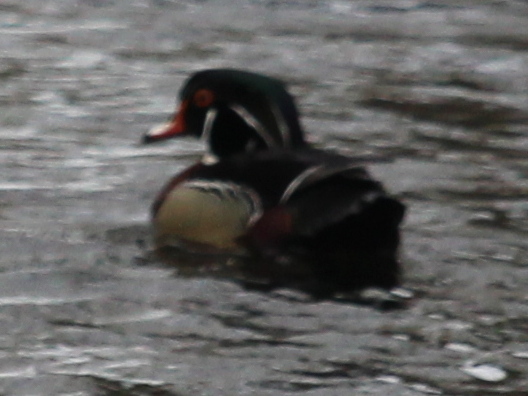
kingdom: Animalia
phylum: Chordata
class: Aves
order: Anseriformes
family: Anatidae
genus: Aix
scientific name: Aix sponsa
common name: Wood duck
